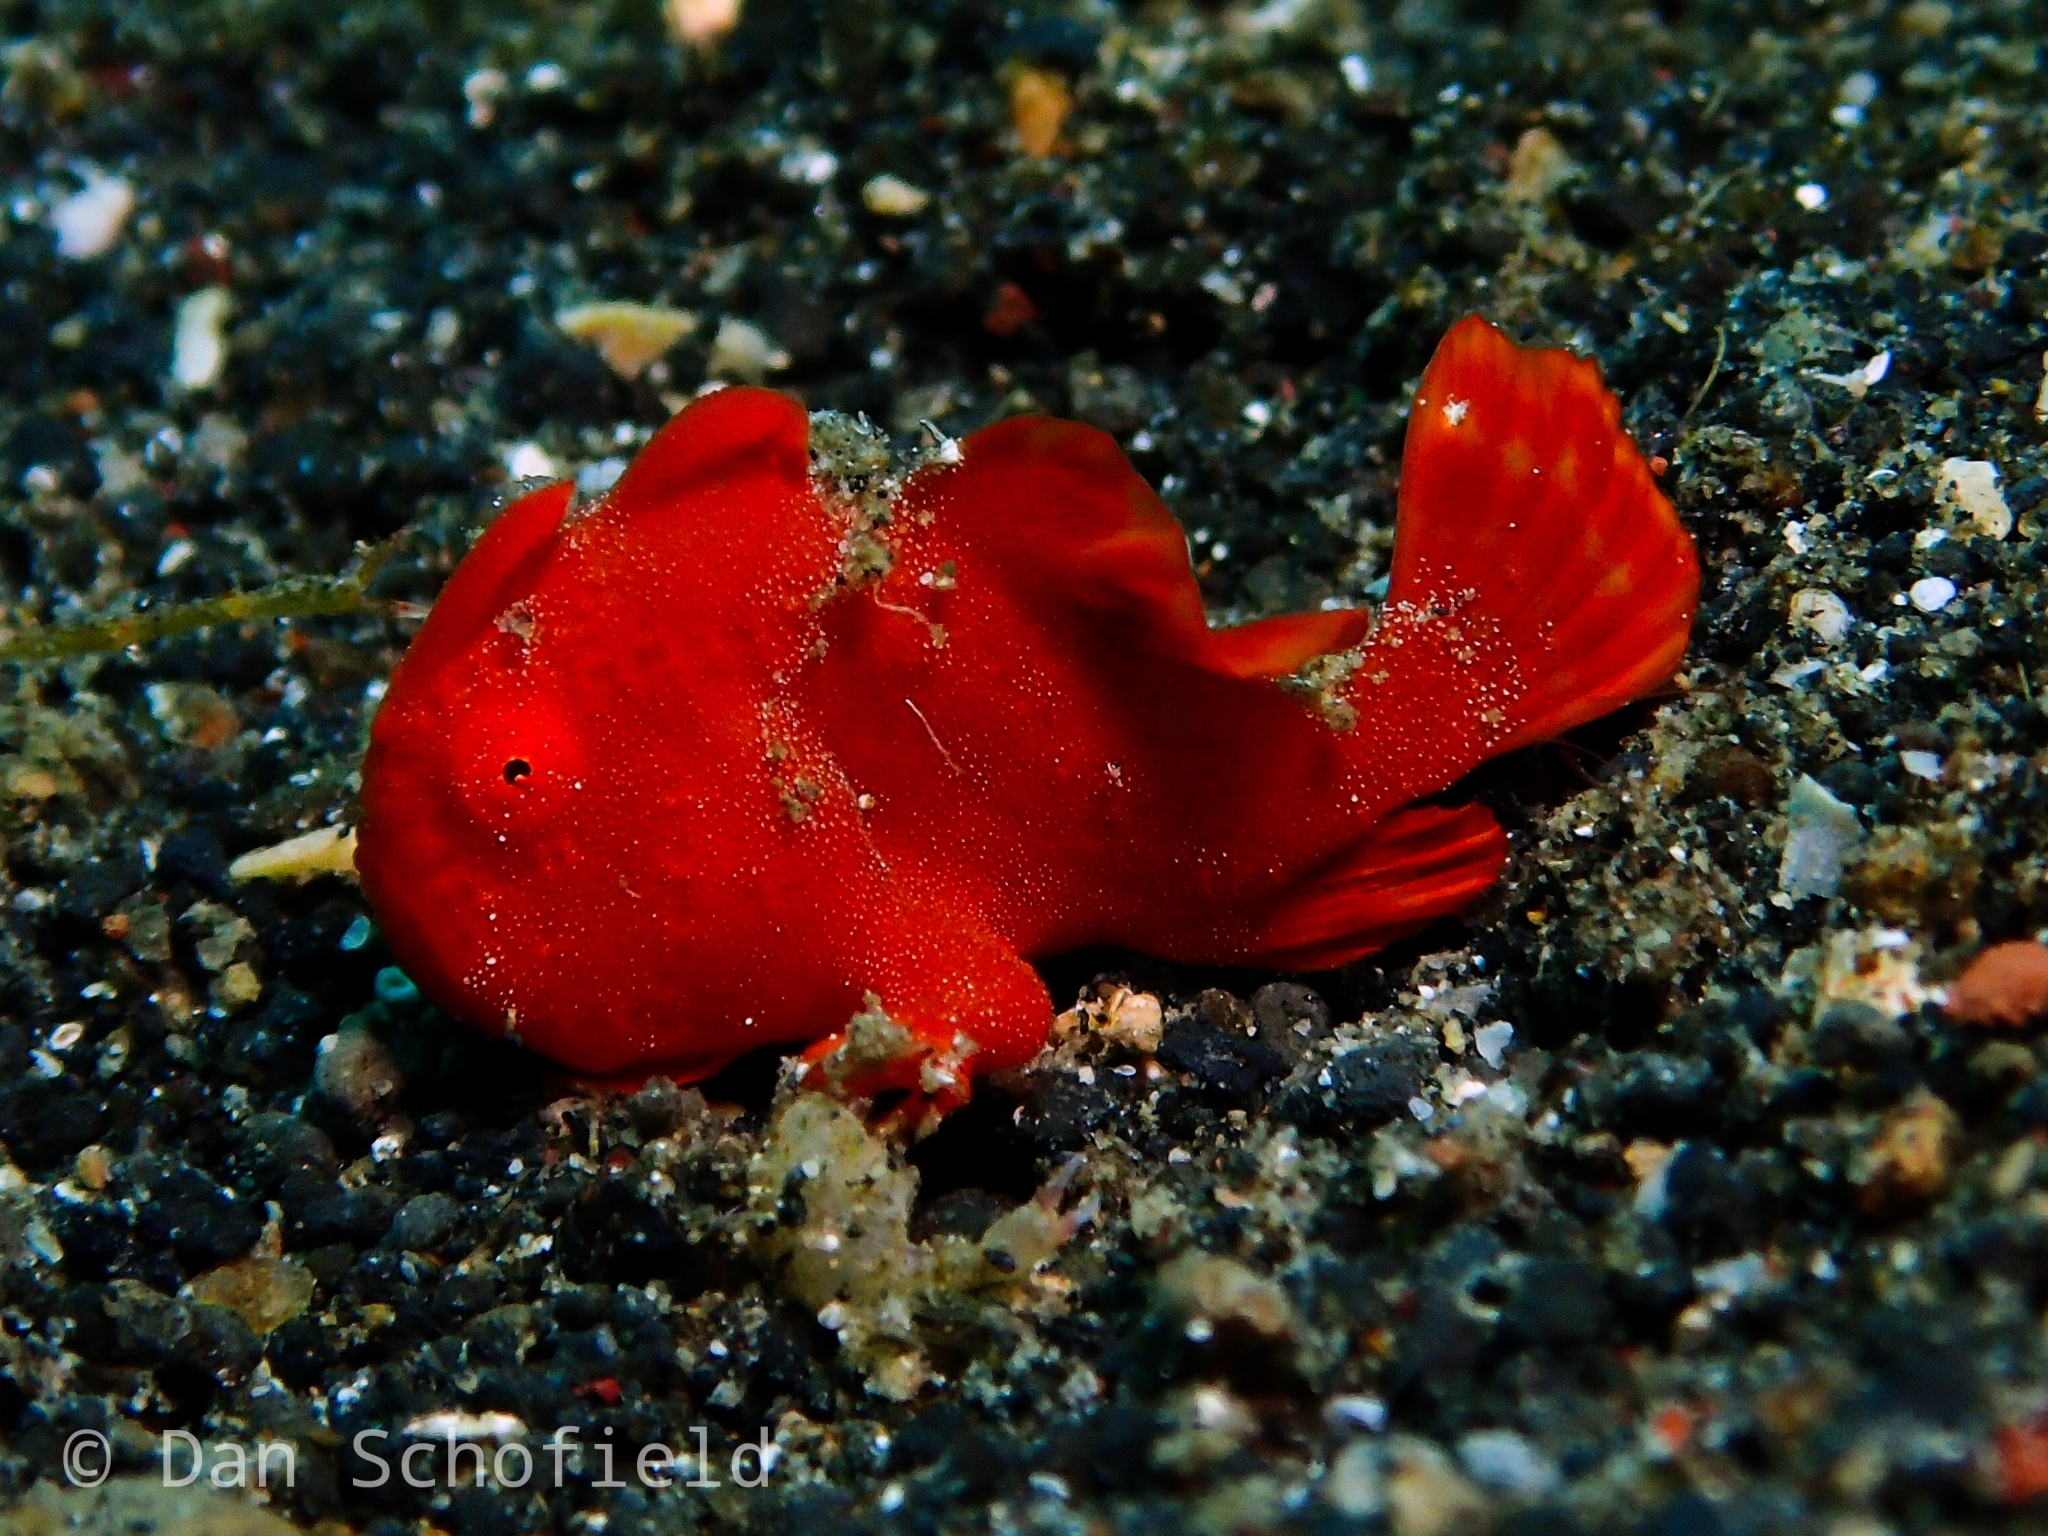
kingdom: Animalia
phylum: Chordata
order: Lophiiformes
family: Antennariidae
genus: Antennarius
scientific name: Antennarius pictus
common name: Painted frogfish
